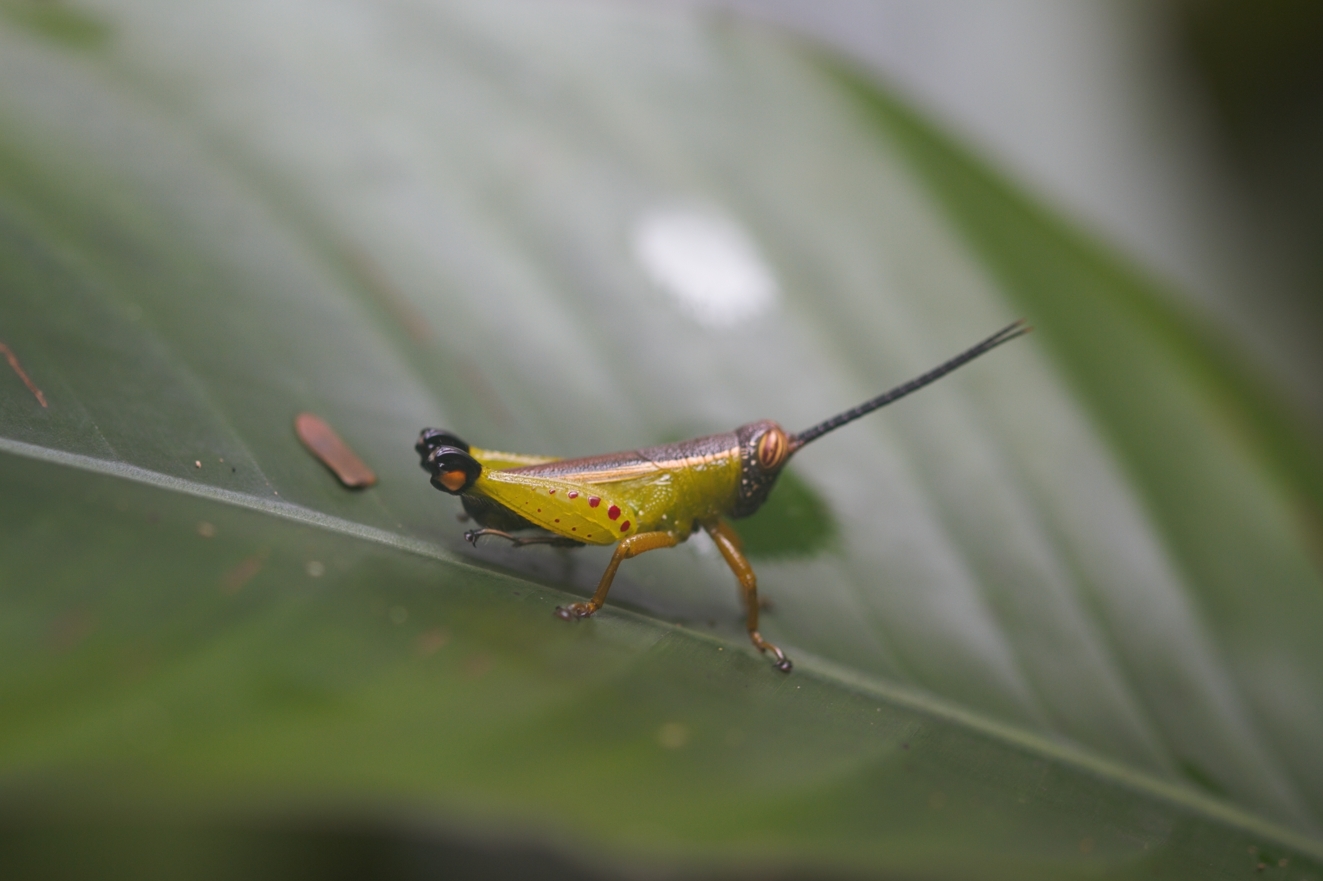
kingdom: Animalia
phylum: Arthropoda
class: Insecta
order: Orthoptera
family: Romaleidae
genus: Chromolampis
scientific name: Chromolampis ornatipes
